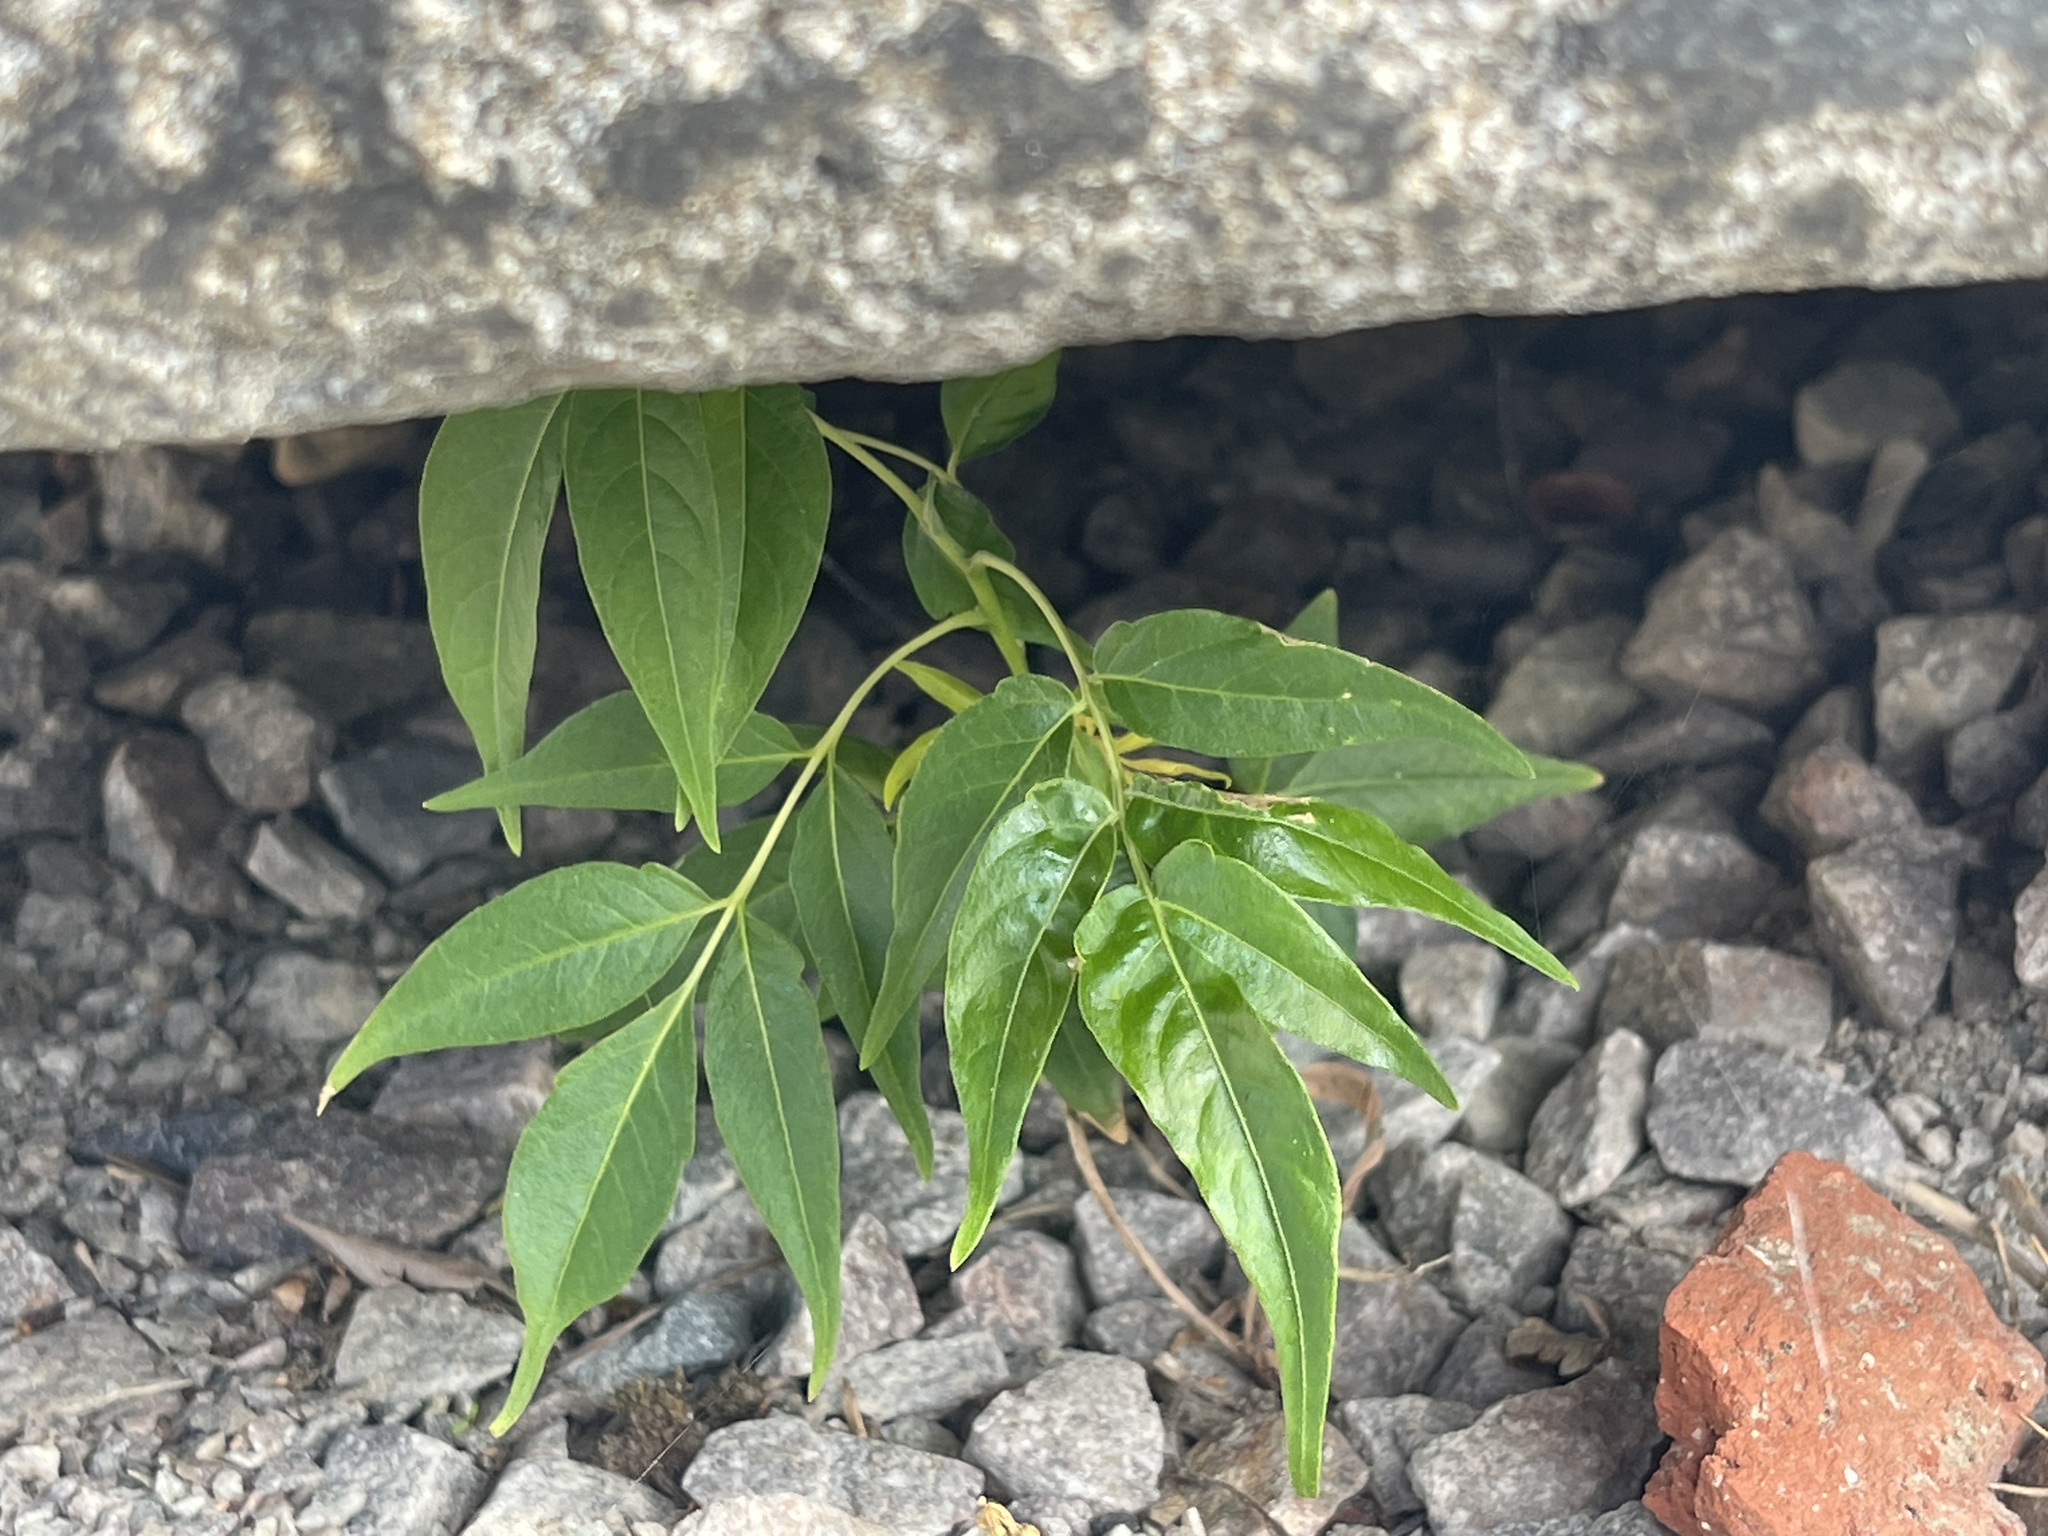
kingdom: Plantae
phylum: Tracheophyta
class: Magnoliopsida
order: Sapindales
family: Simaroubaceae
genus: Ailanthus
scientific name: Ailanthus altissima
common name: Tree-of-heaven
